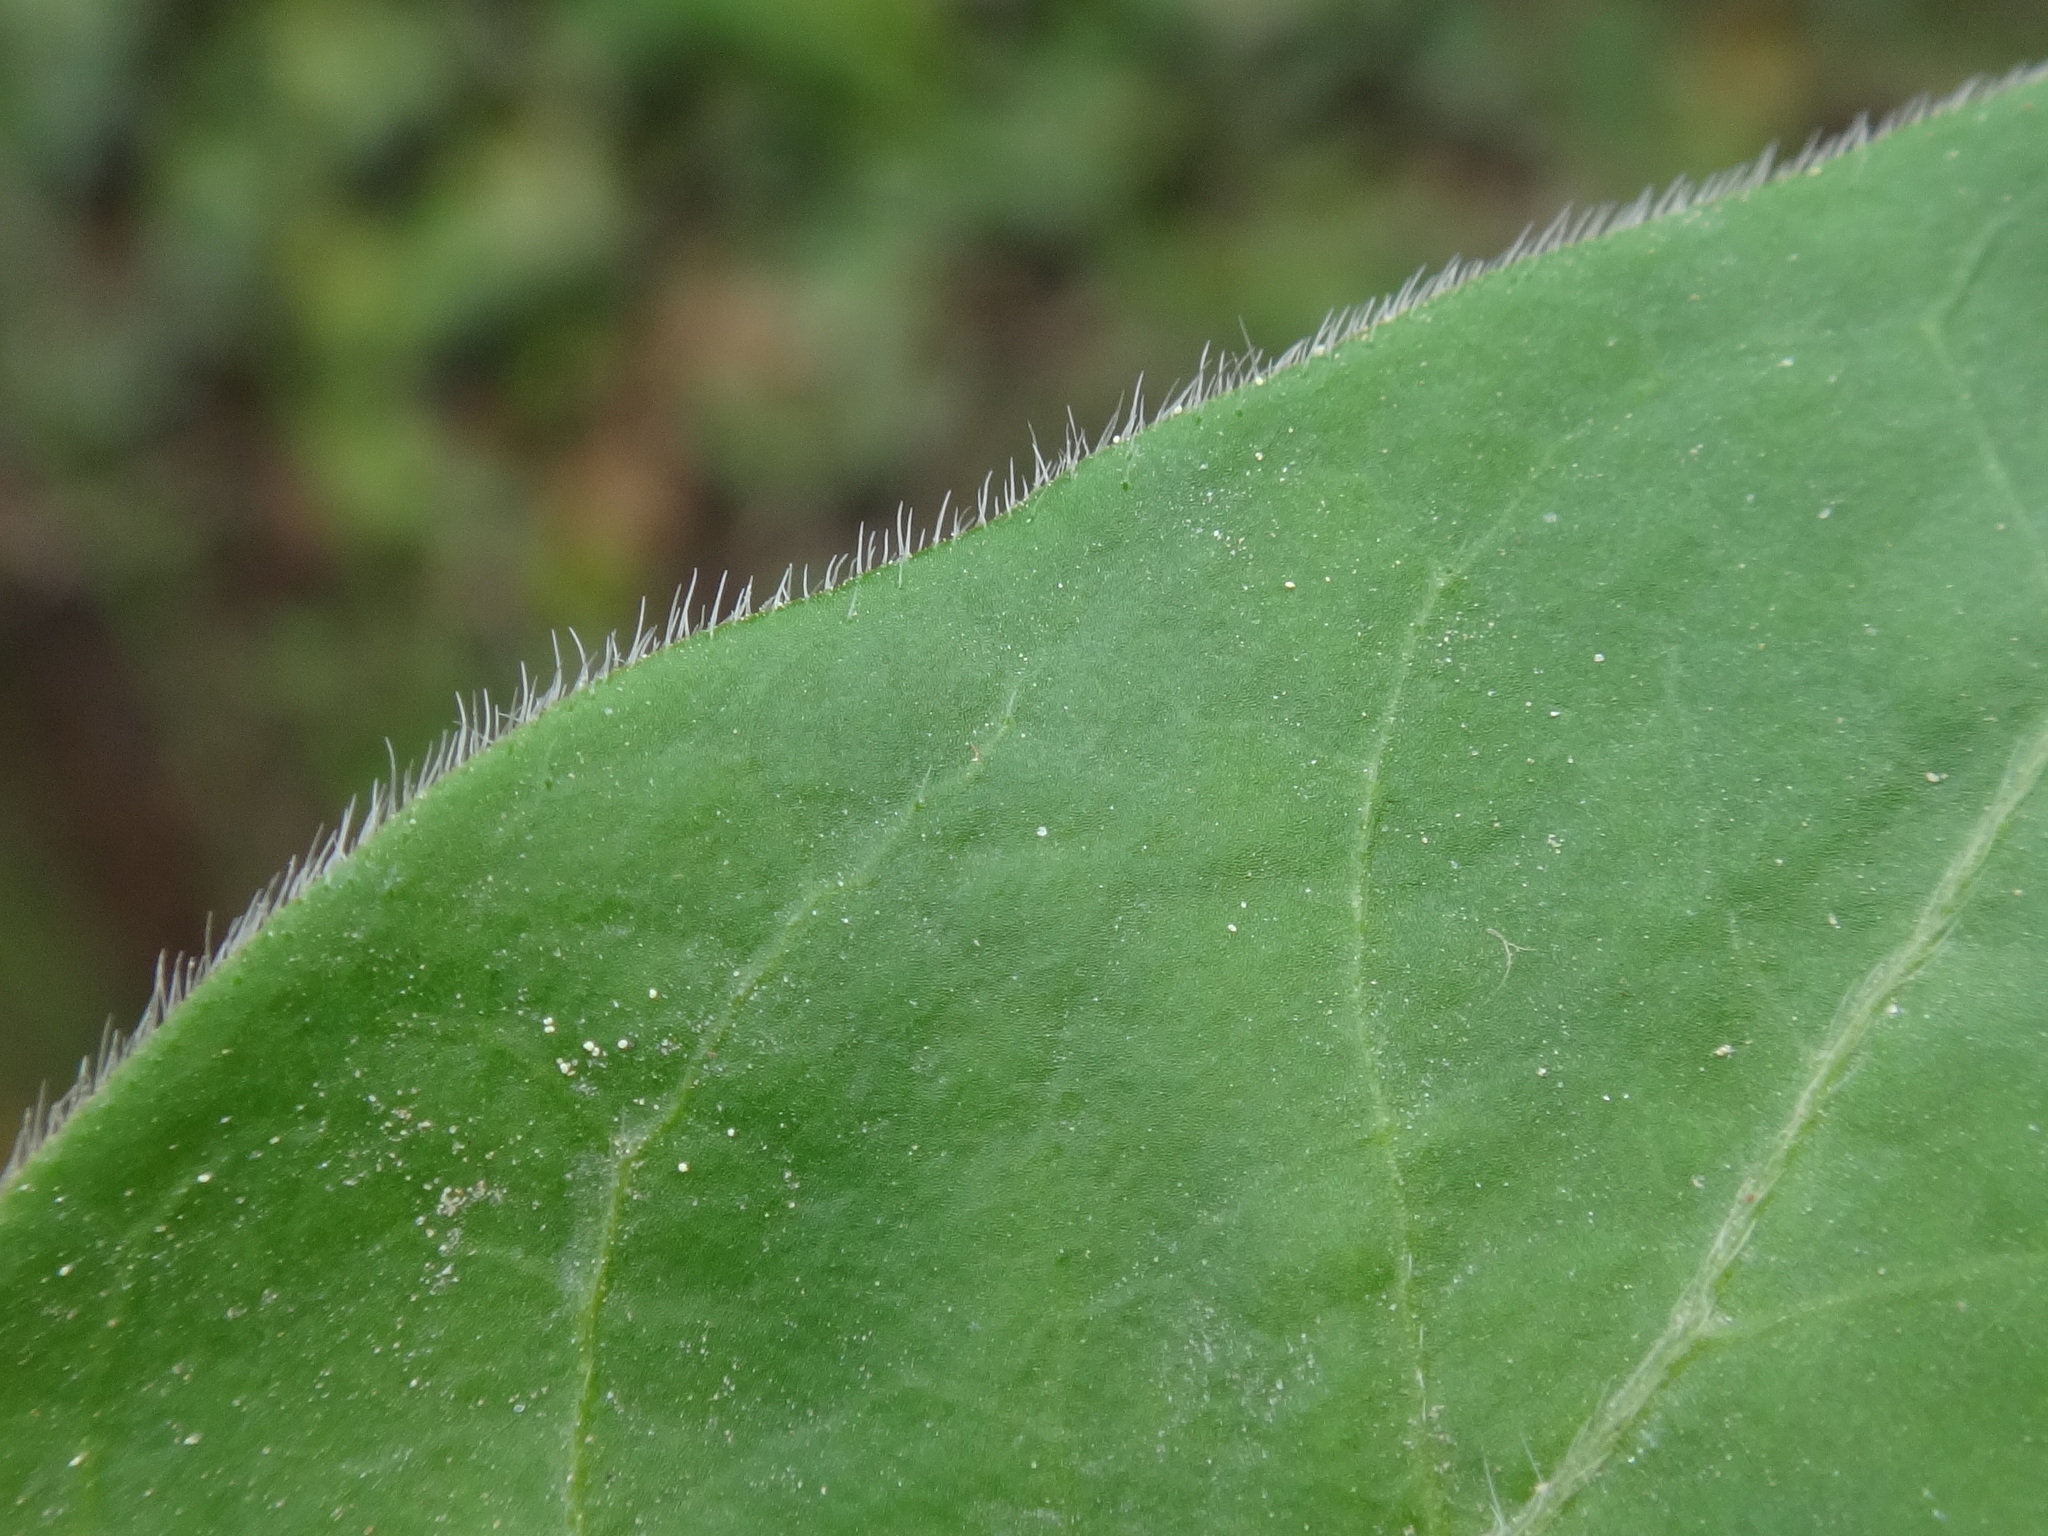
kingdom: Plantae
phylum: Tracheophyta
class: Magnoliopsida
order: Gentianales
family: Apocynaceae
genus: Vinca
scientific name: Vinca major
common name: Greater periwinkle
